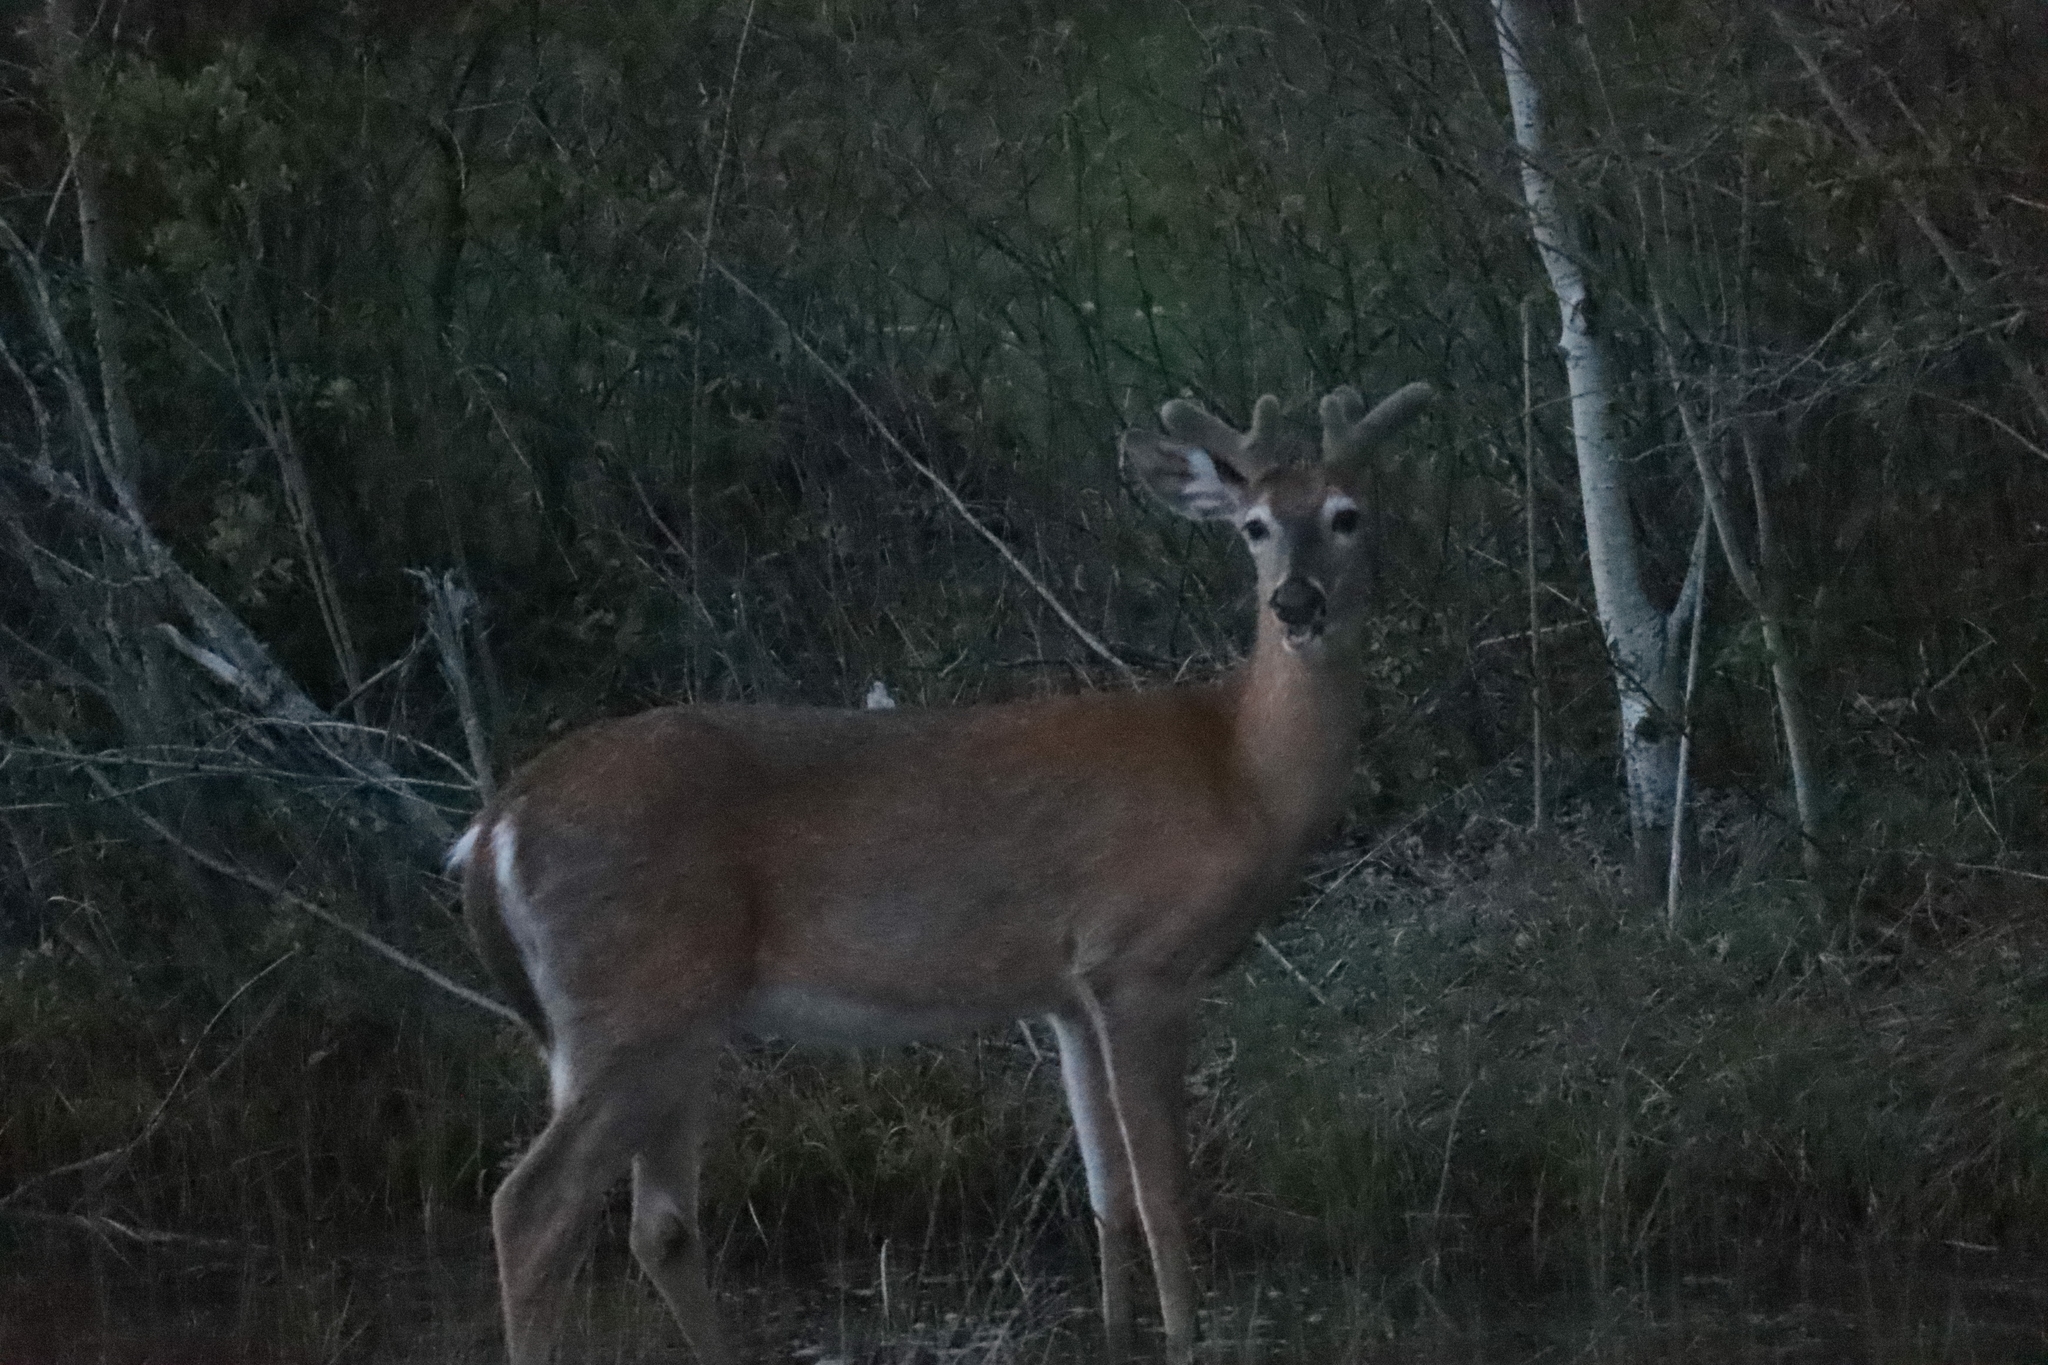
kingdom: Animalia
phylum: Chordata
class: Mammalia
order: Artiodactyla
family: Cervidae
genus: Odocoileus
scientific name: Odocoileus virginianus
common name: White-tailed deer
